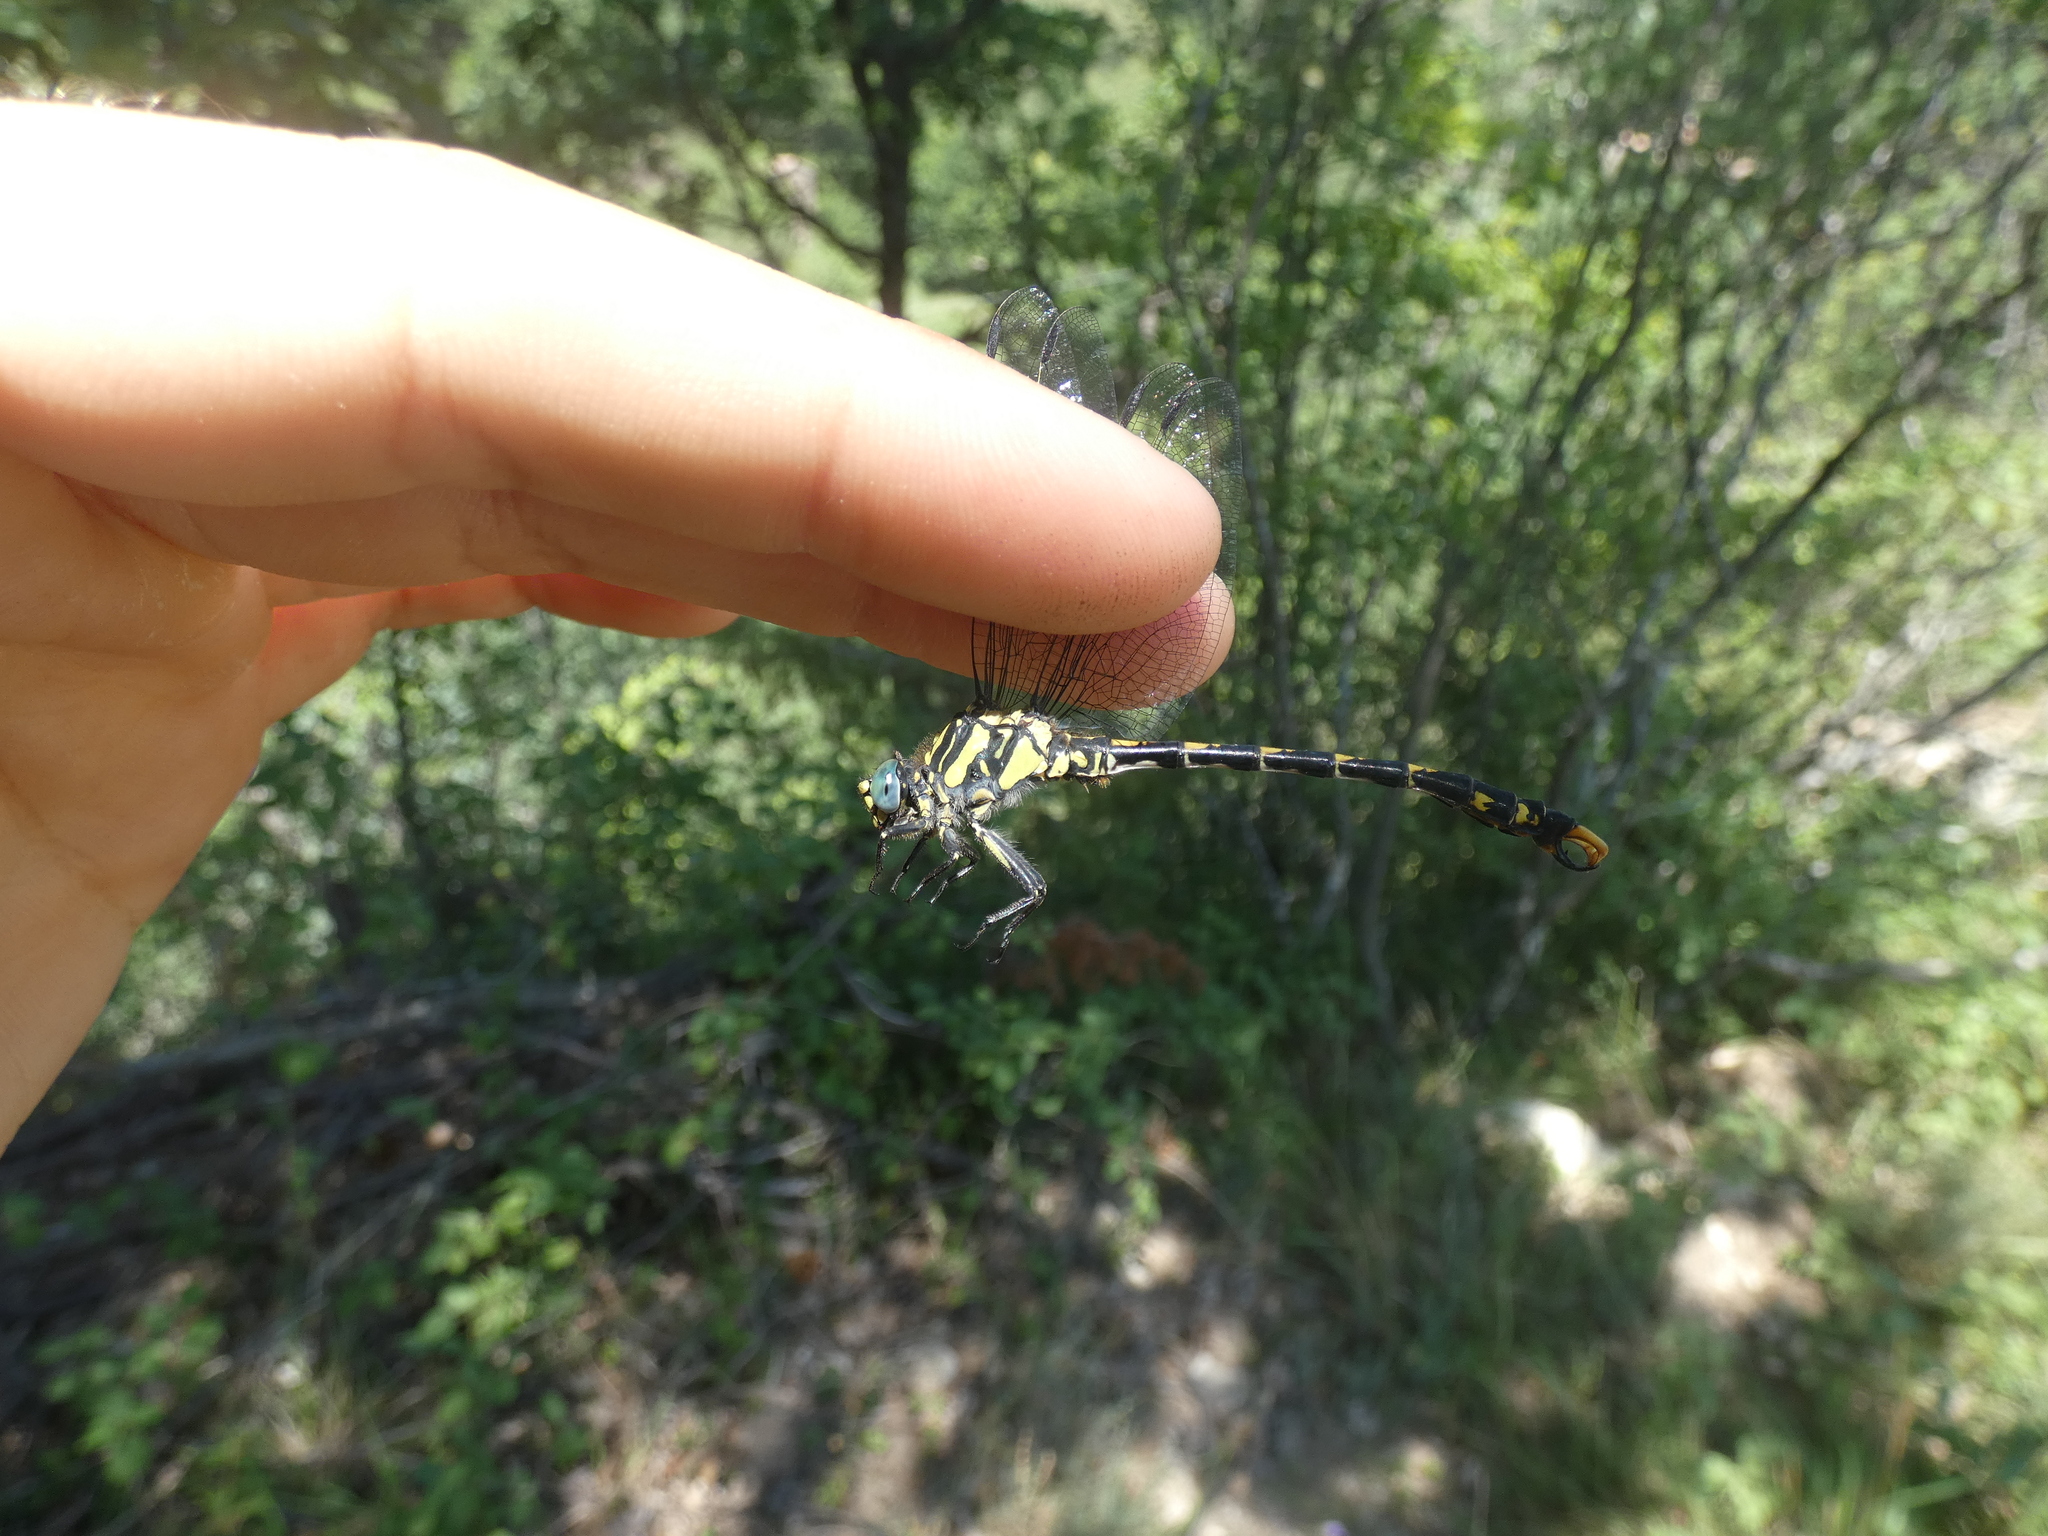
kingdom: Animalia
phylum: Arthropoda
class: Insecta
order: Odonata
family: Gomphidae
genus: Onychogomphus
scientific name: Onychogomphus uncatus
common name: Large pincertail
